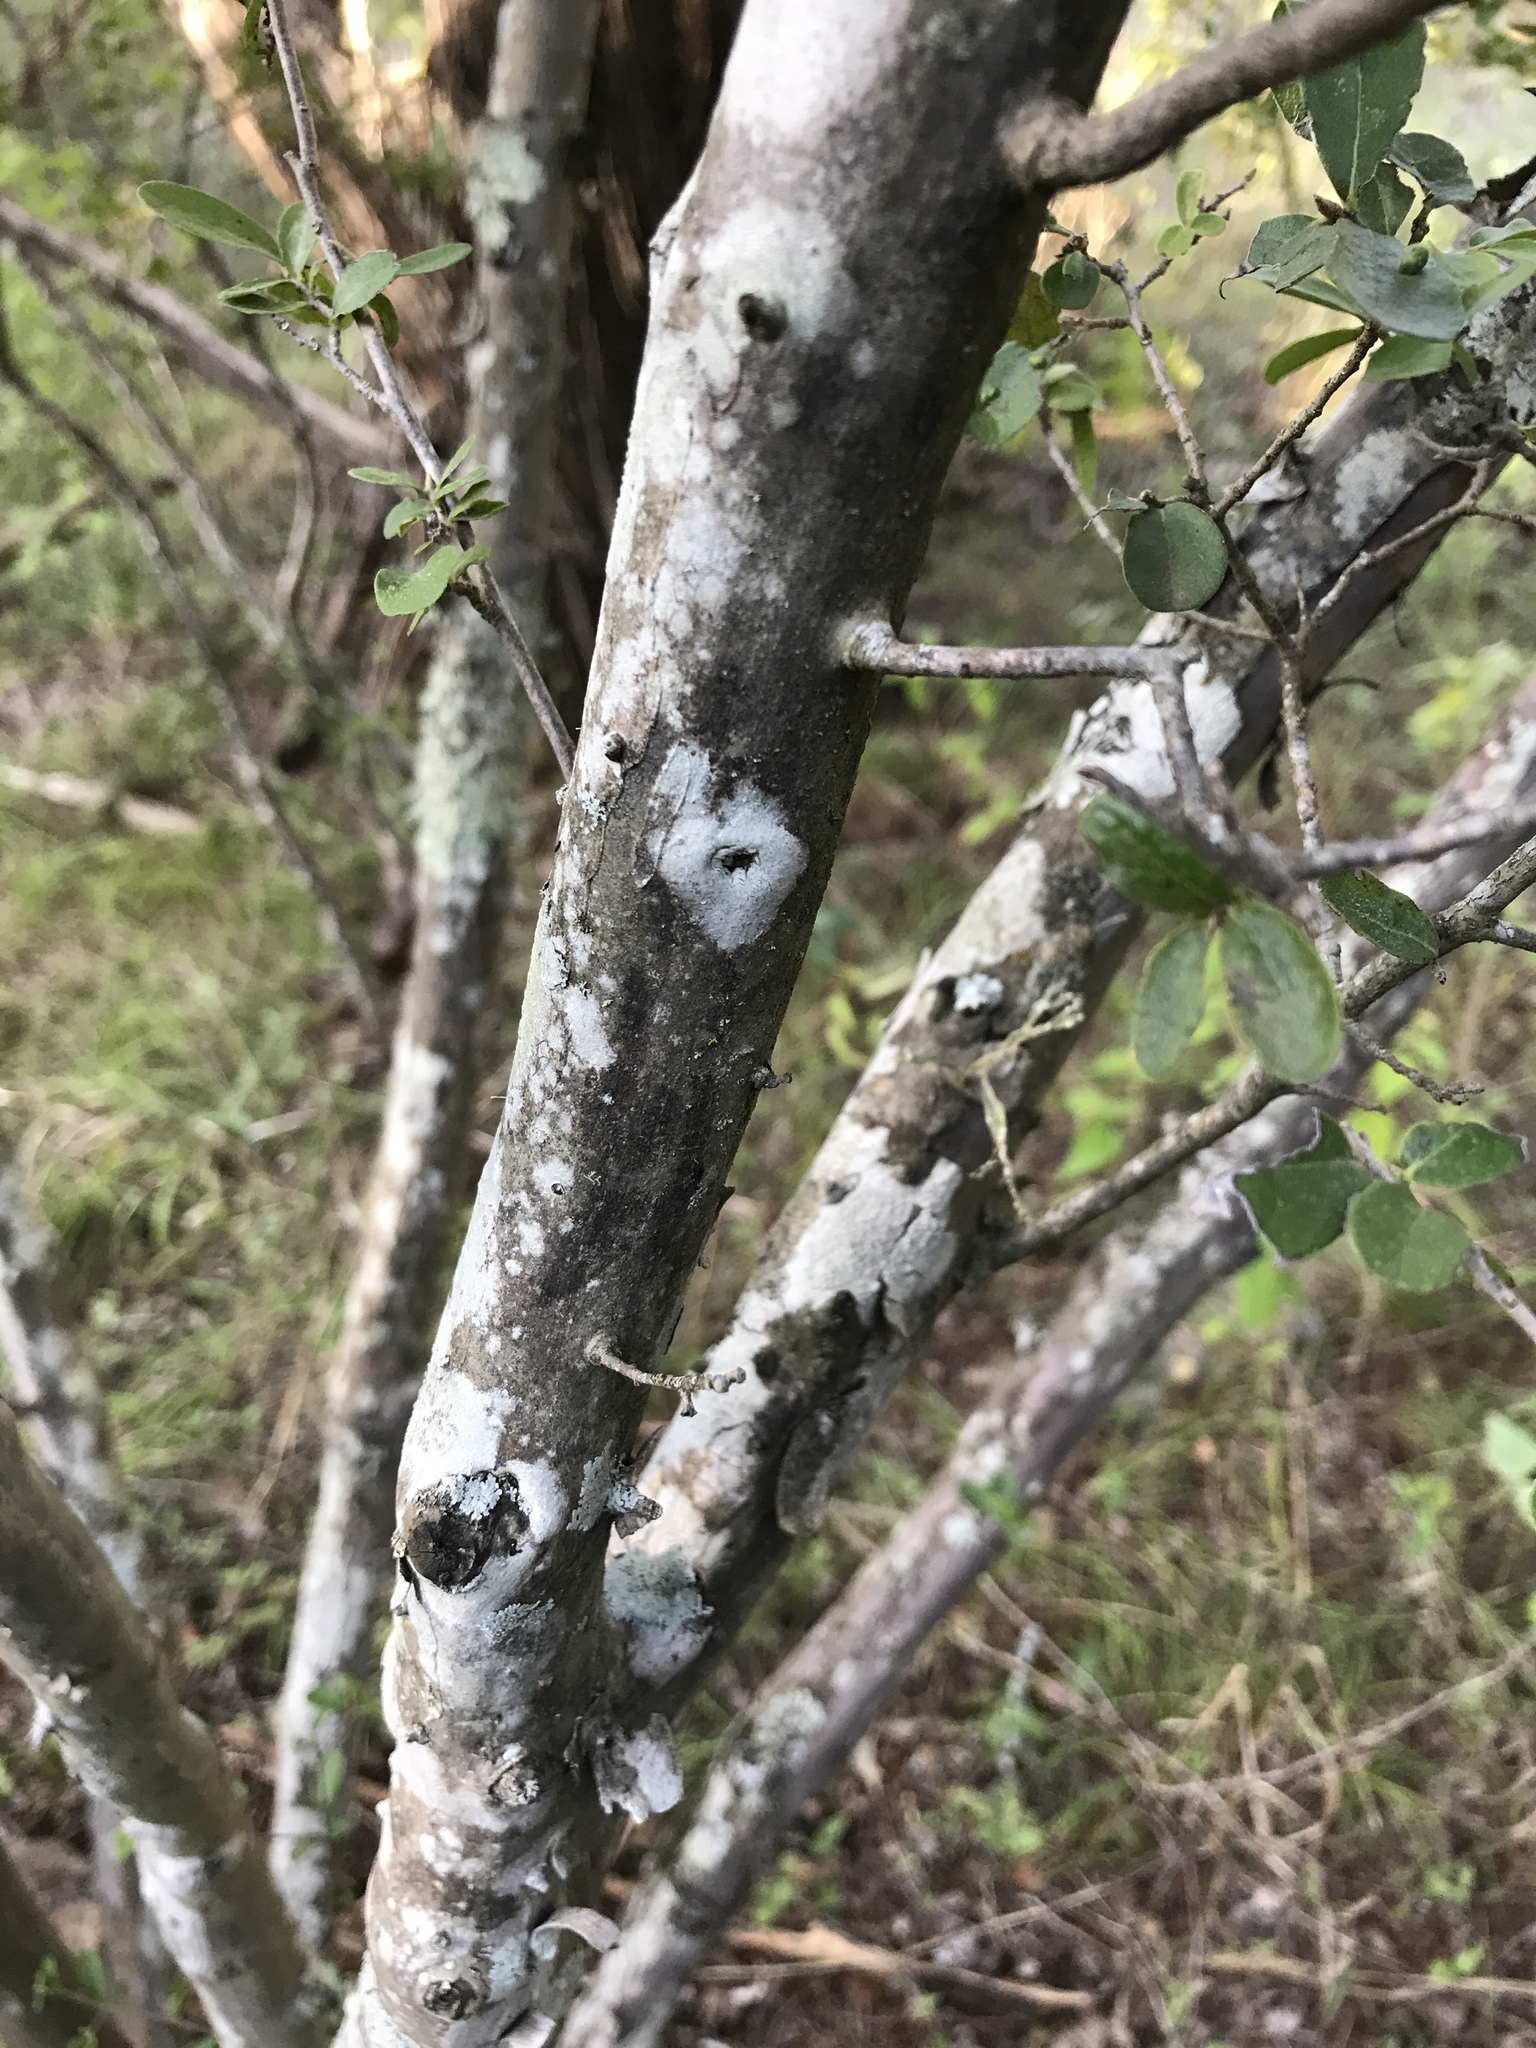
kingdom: Plantae
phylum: Tracheophyta
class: Magnoliopsida
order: Ericales
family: Ebenaceae
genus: Diospyros
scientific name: Diospyros texana
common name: Texas persimmon
